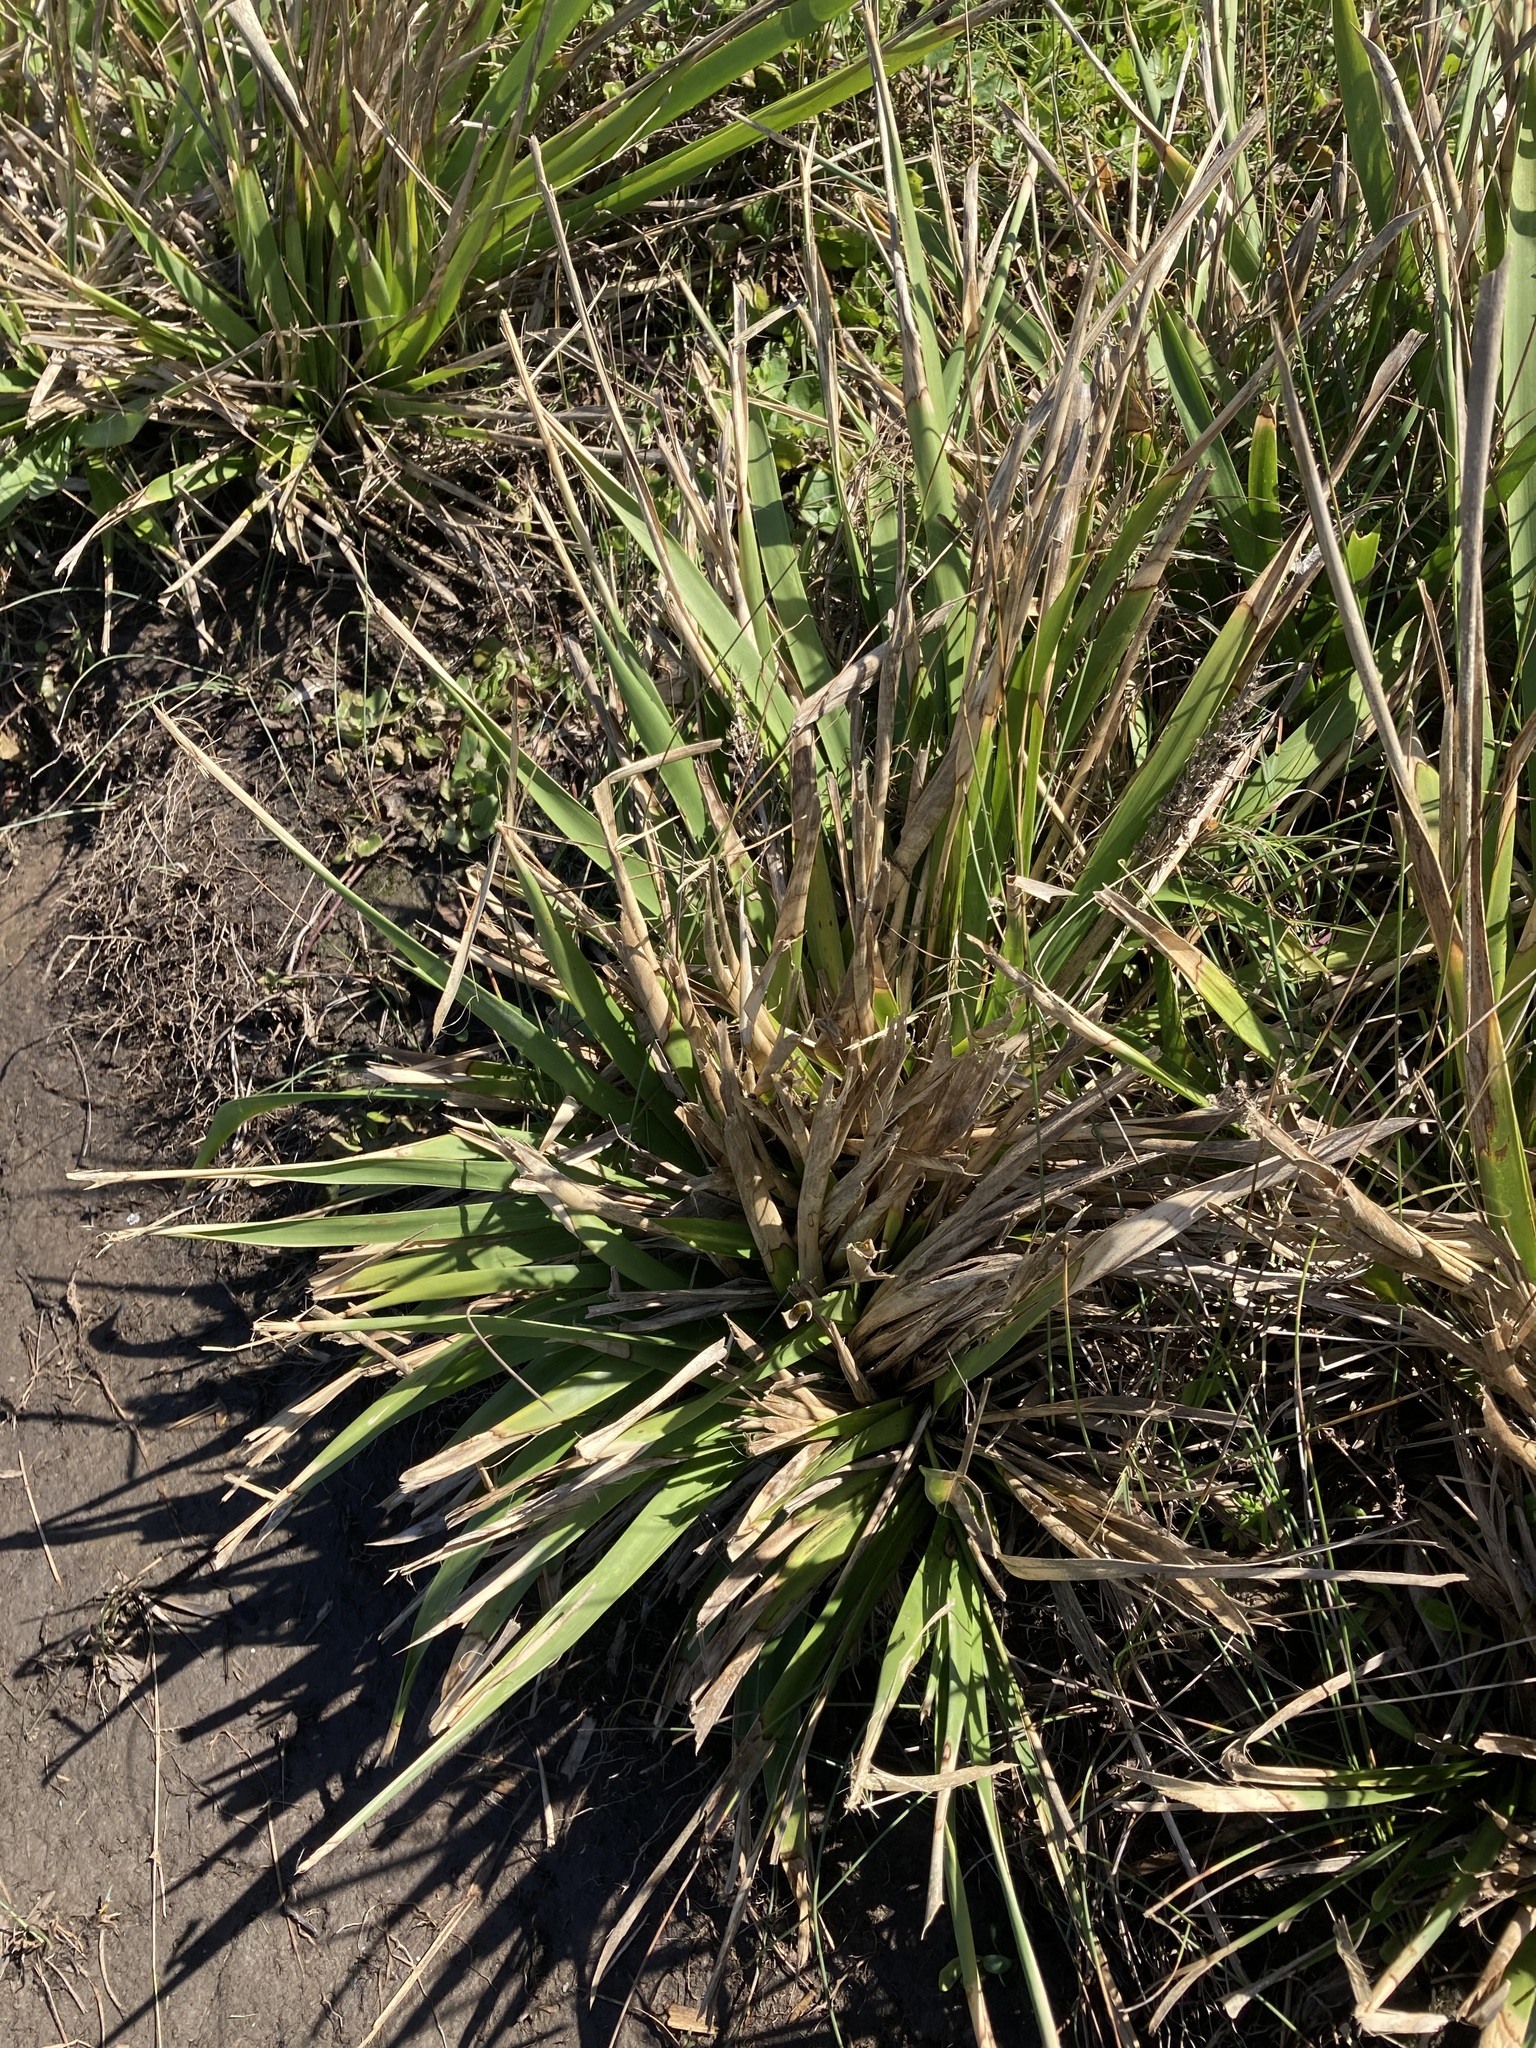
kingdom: Plantae
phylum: Tracheophyta
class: Liliopsida
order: Asparagales
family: Asparagaceae
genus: Lomandra
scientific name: Lomandra longifolia
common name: Longleaf mat-rush
